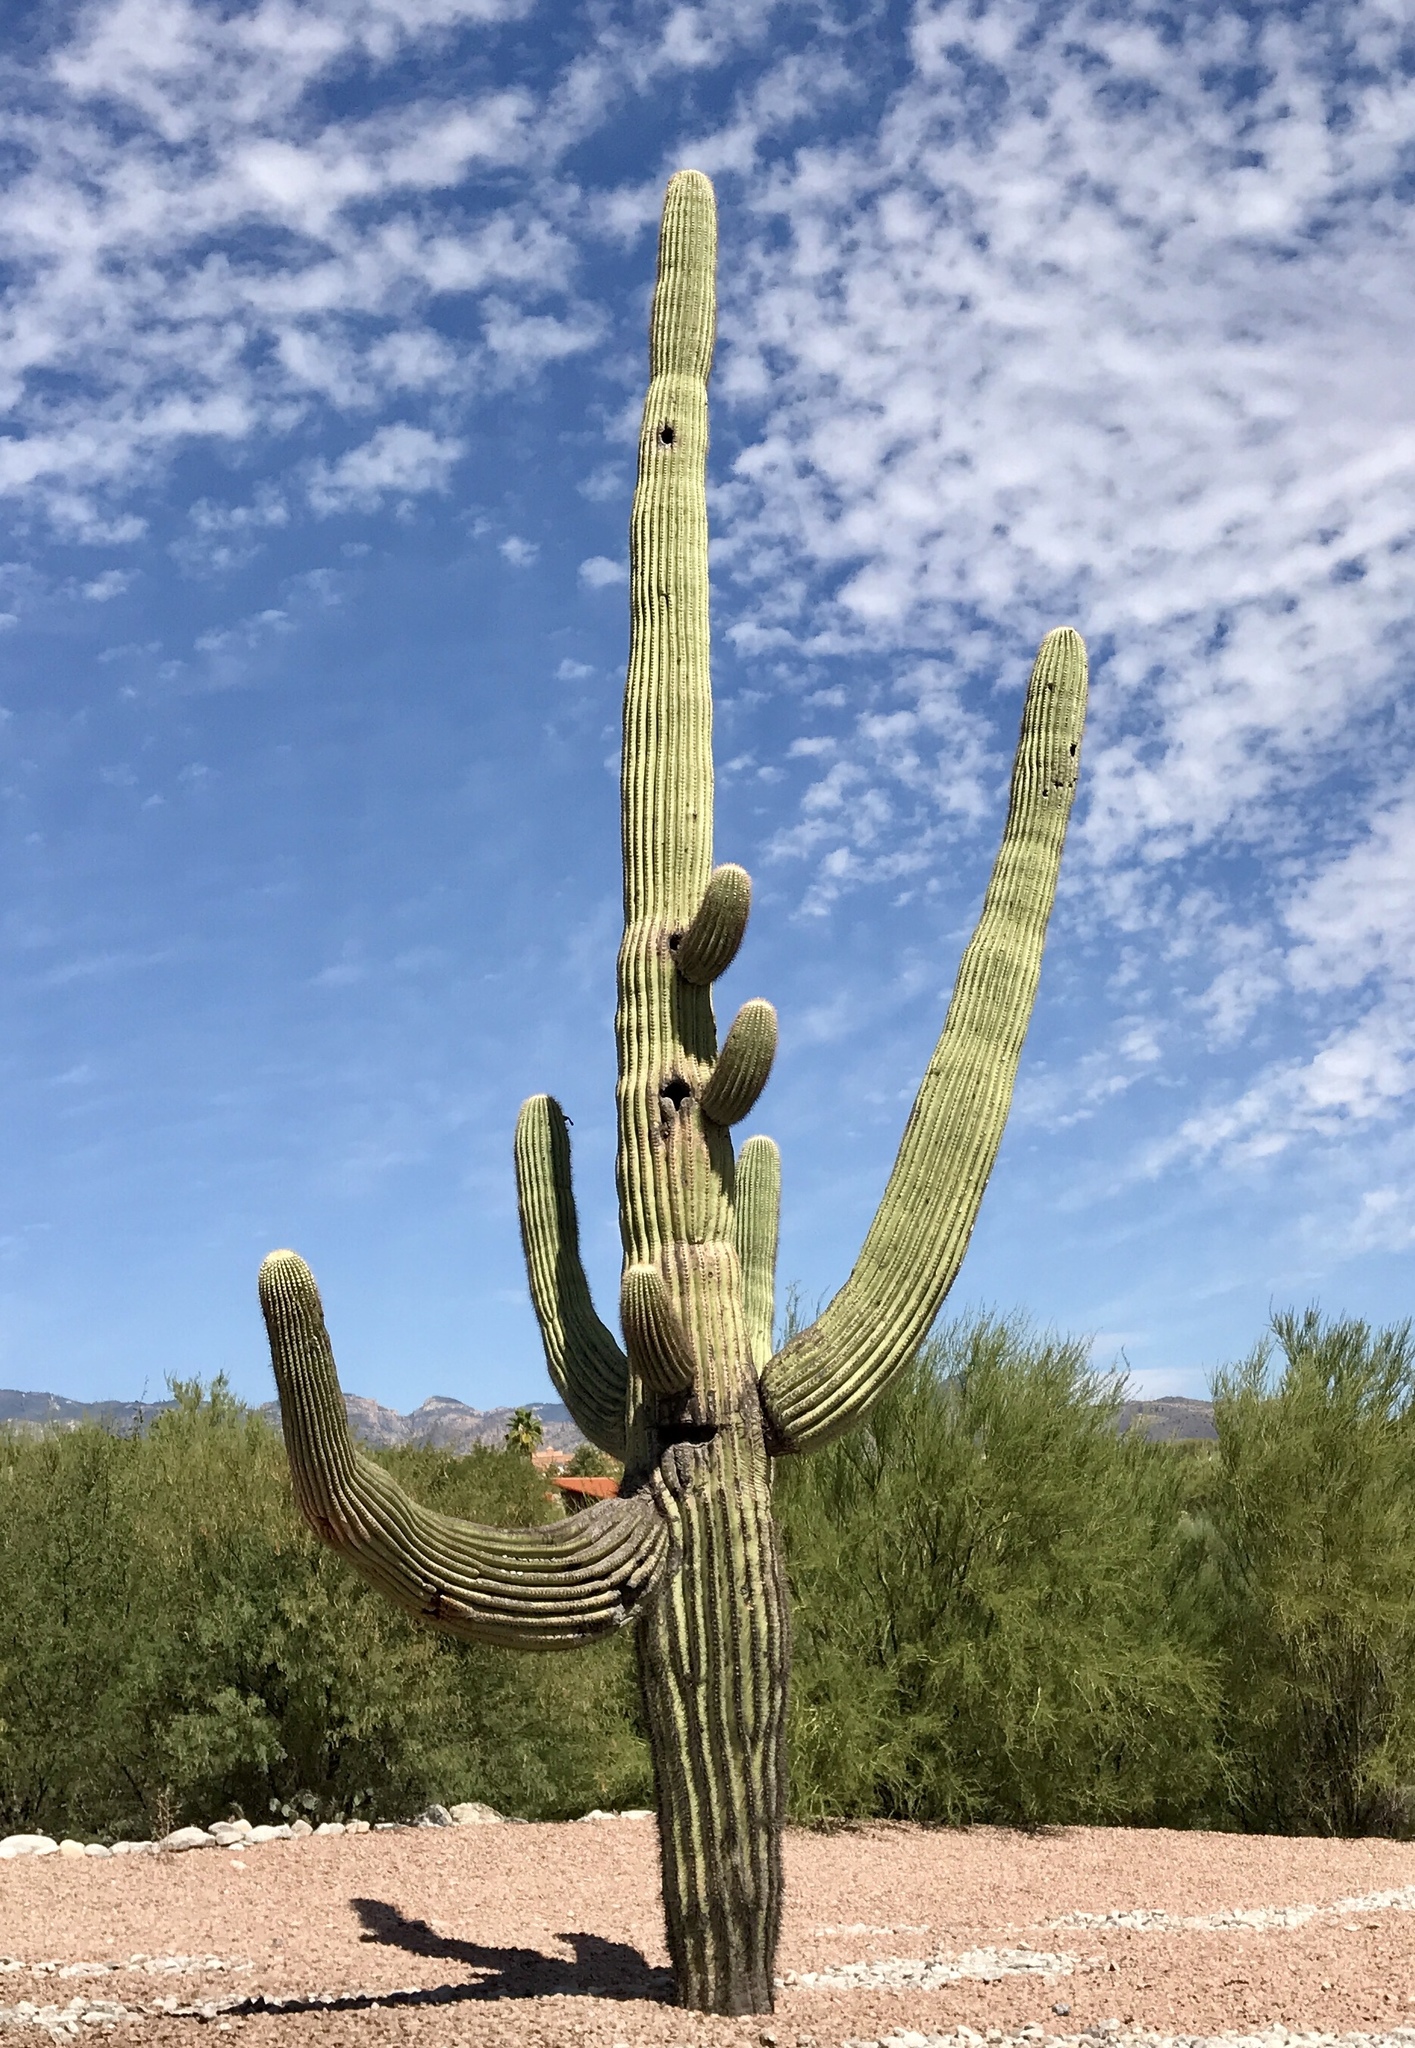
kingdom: Plantae
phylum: Tracheophyta
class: Magnoliopsida
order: Caryophyllales
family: Cactaceae
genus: Carnegiea
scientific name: Carnegiea gigantea
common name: Saguaro
